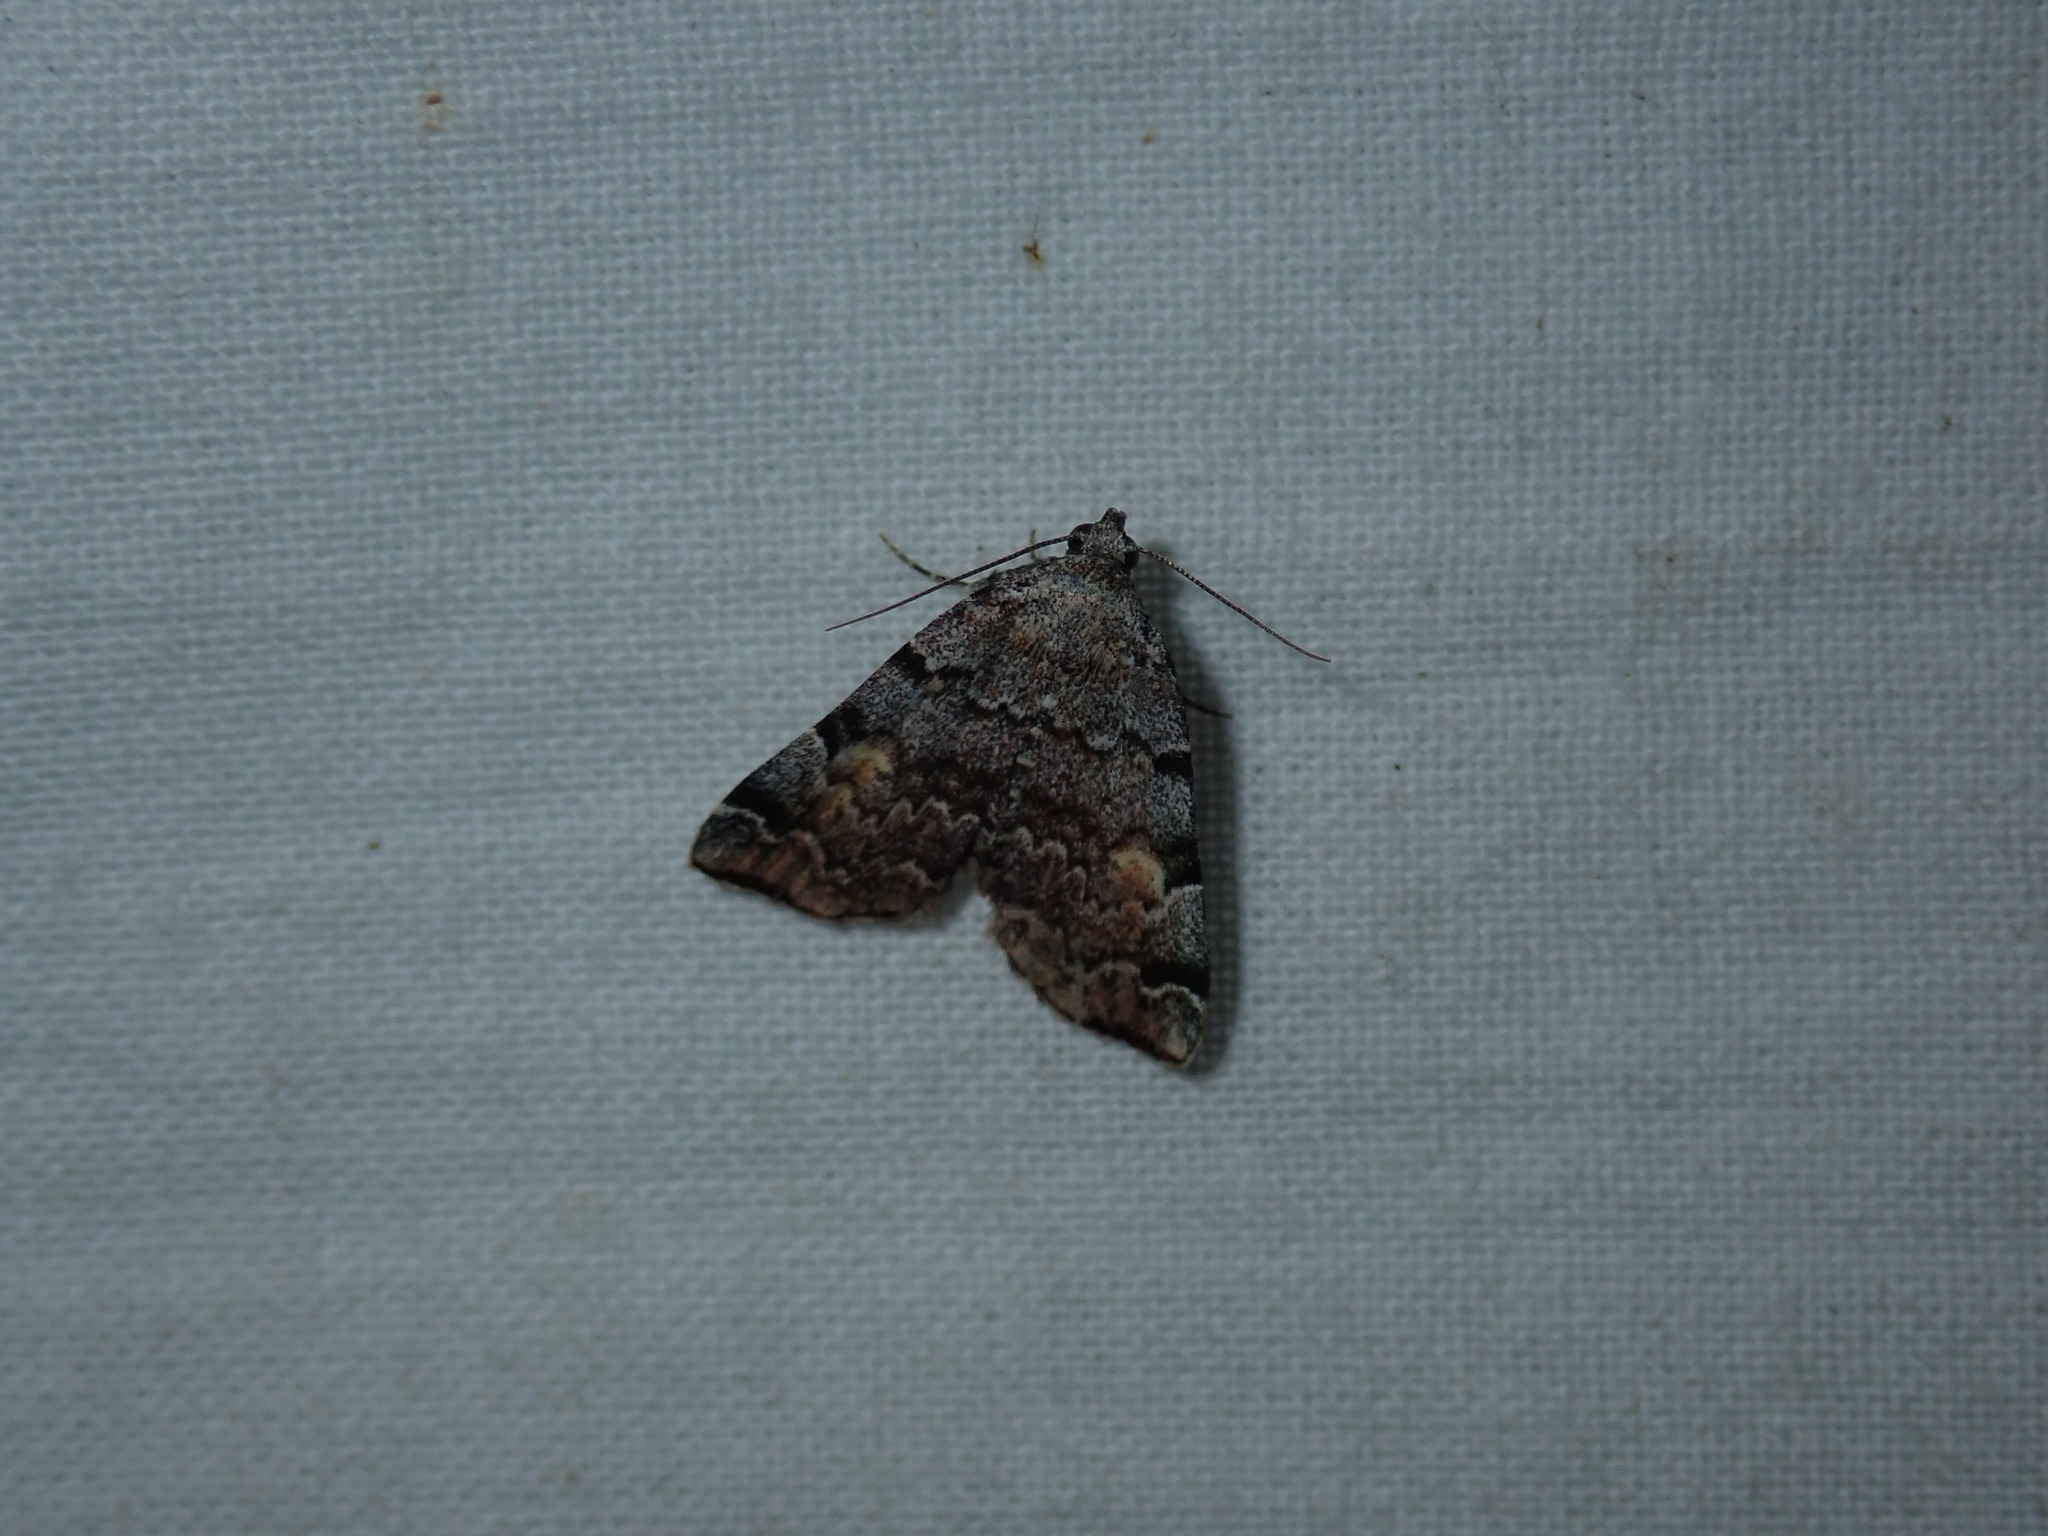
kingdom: Animalia
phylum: Arthropoda
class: Insecta
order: Lepidoptera
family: Erebidae
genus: Idia
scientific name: Idia americalis
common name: American idia moth
